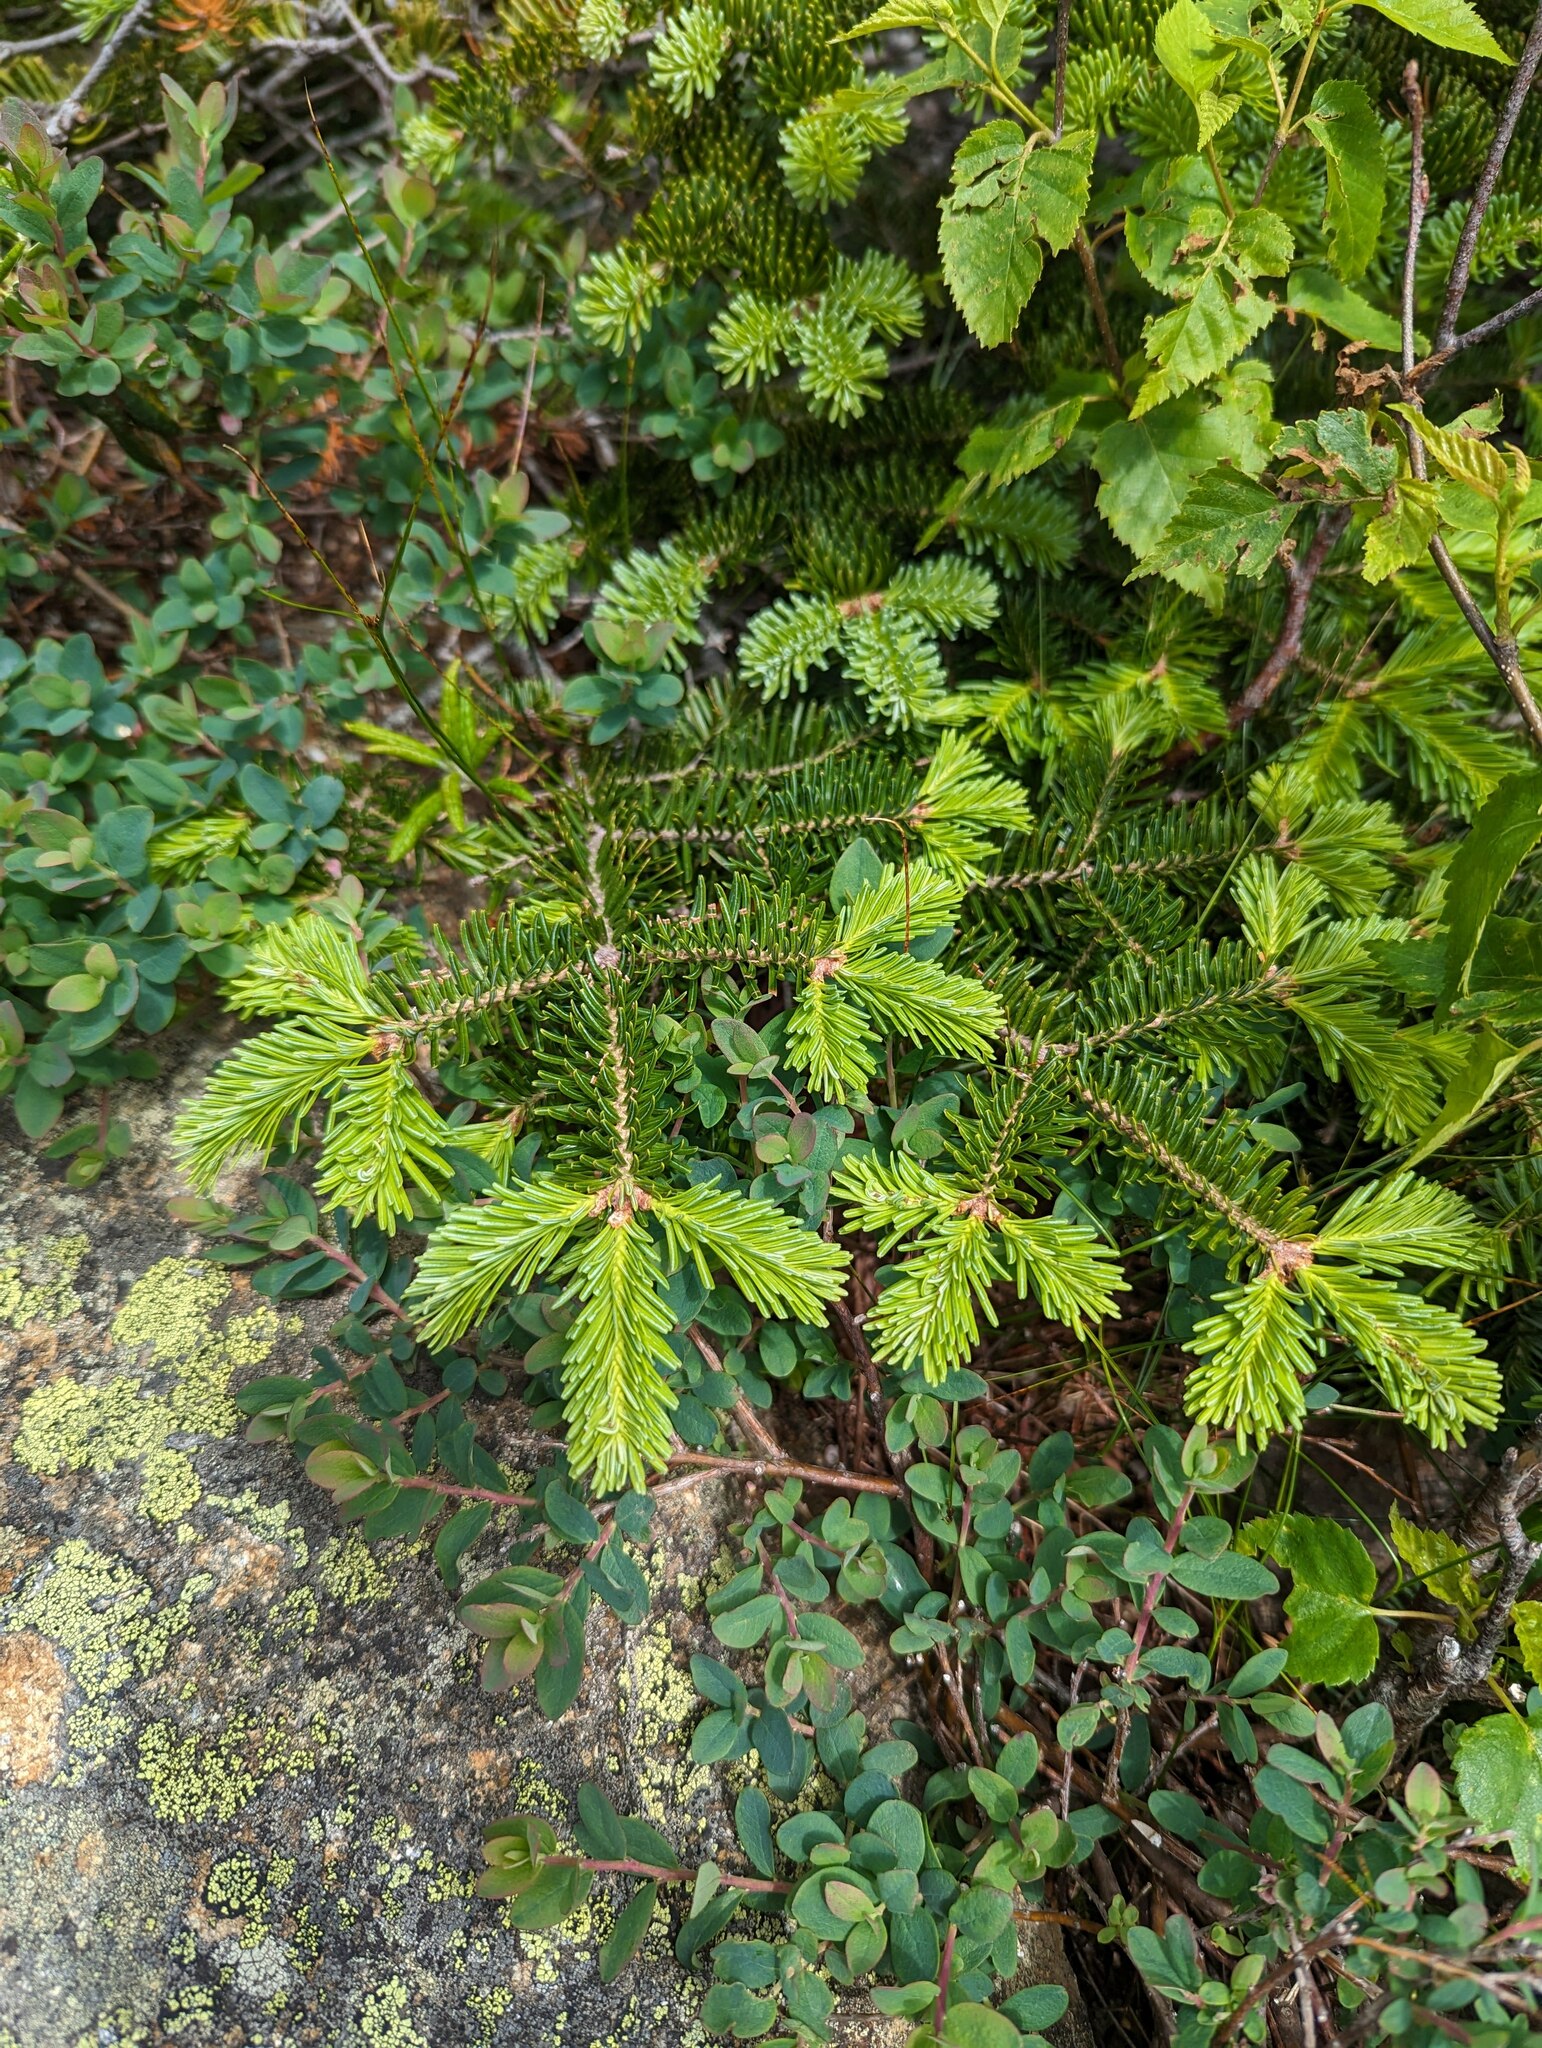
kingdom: Plantae
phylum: Tracheophyta
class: Pinopsida
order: Pinales
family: Pinaceae
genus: Abies
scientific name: Abies balsamea
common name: Balsam fir
